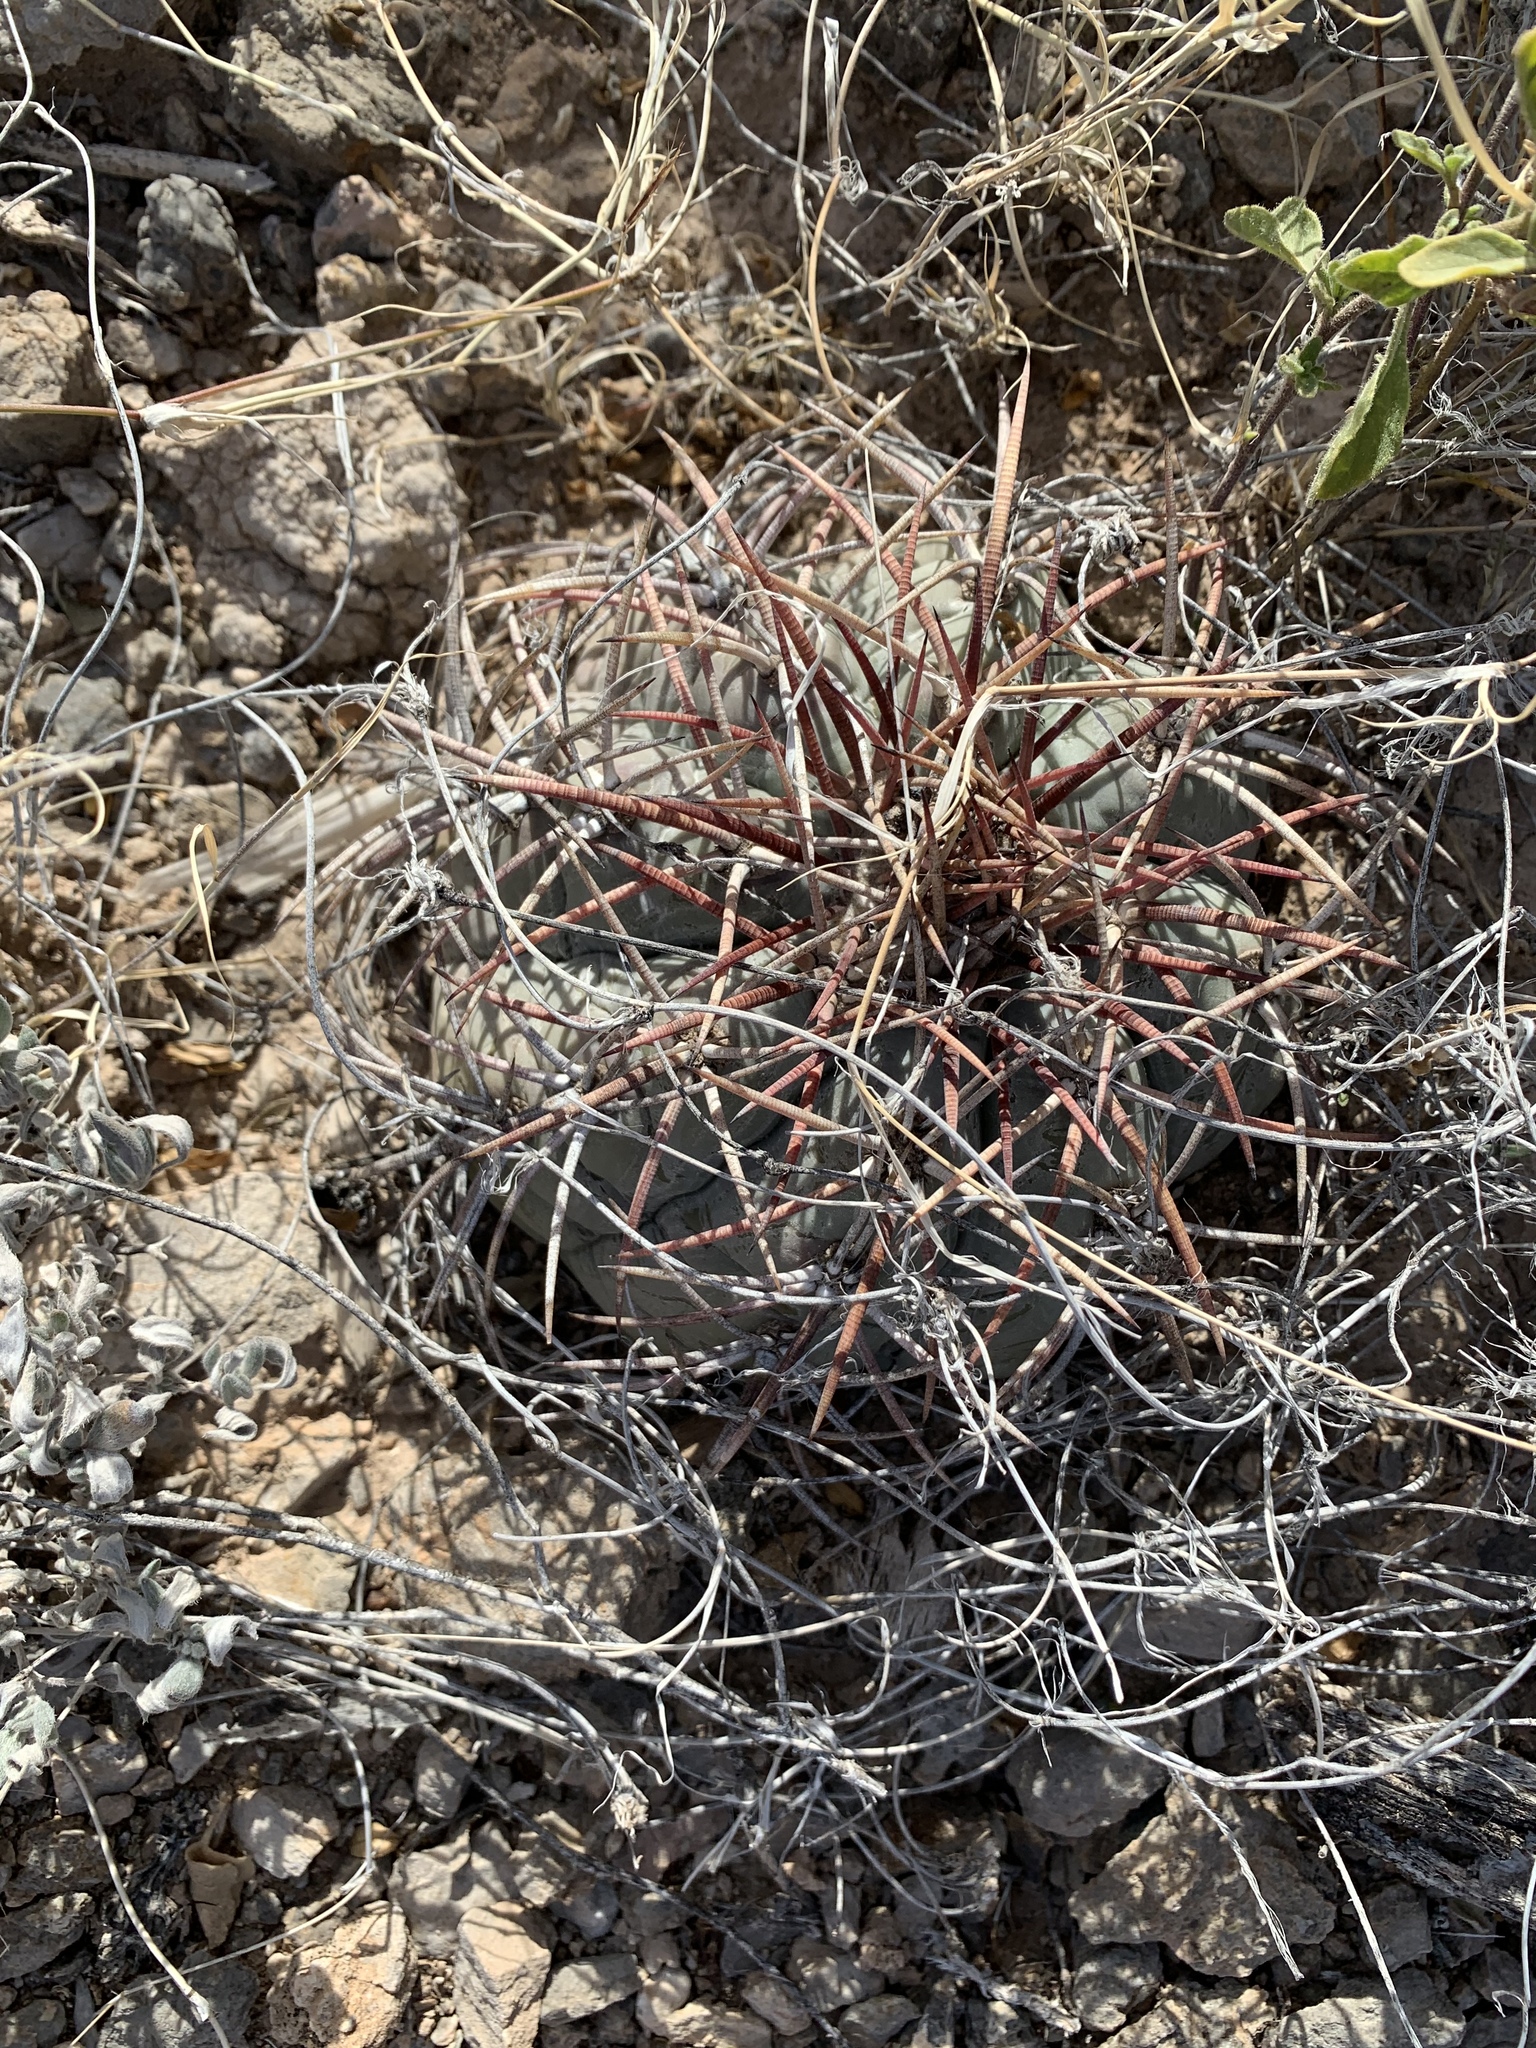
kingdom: Plantae
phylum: Tracheophyta
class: Magnoliopsida
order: Caryophyllales
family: Cactaceae
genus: Echinocactus
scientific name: Echinocactus horizonthalonius
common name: Devilshead
